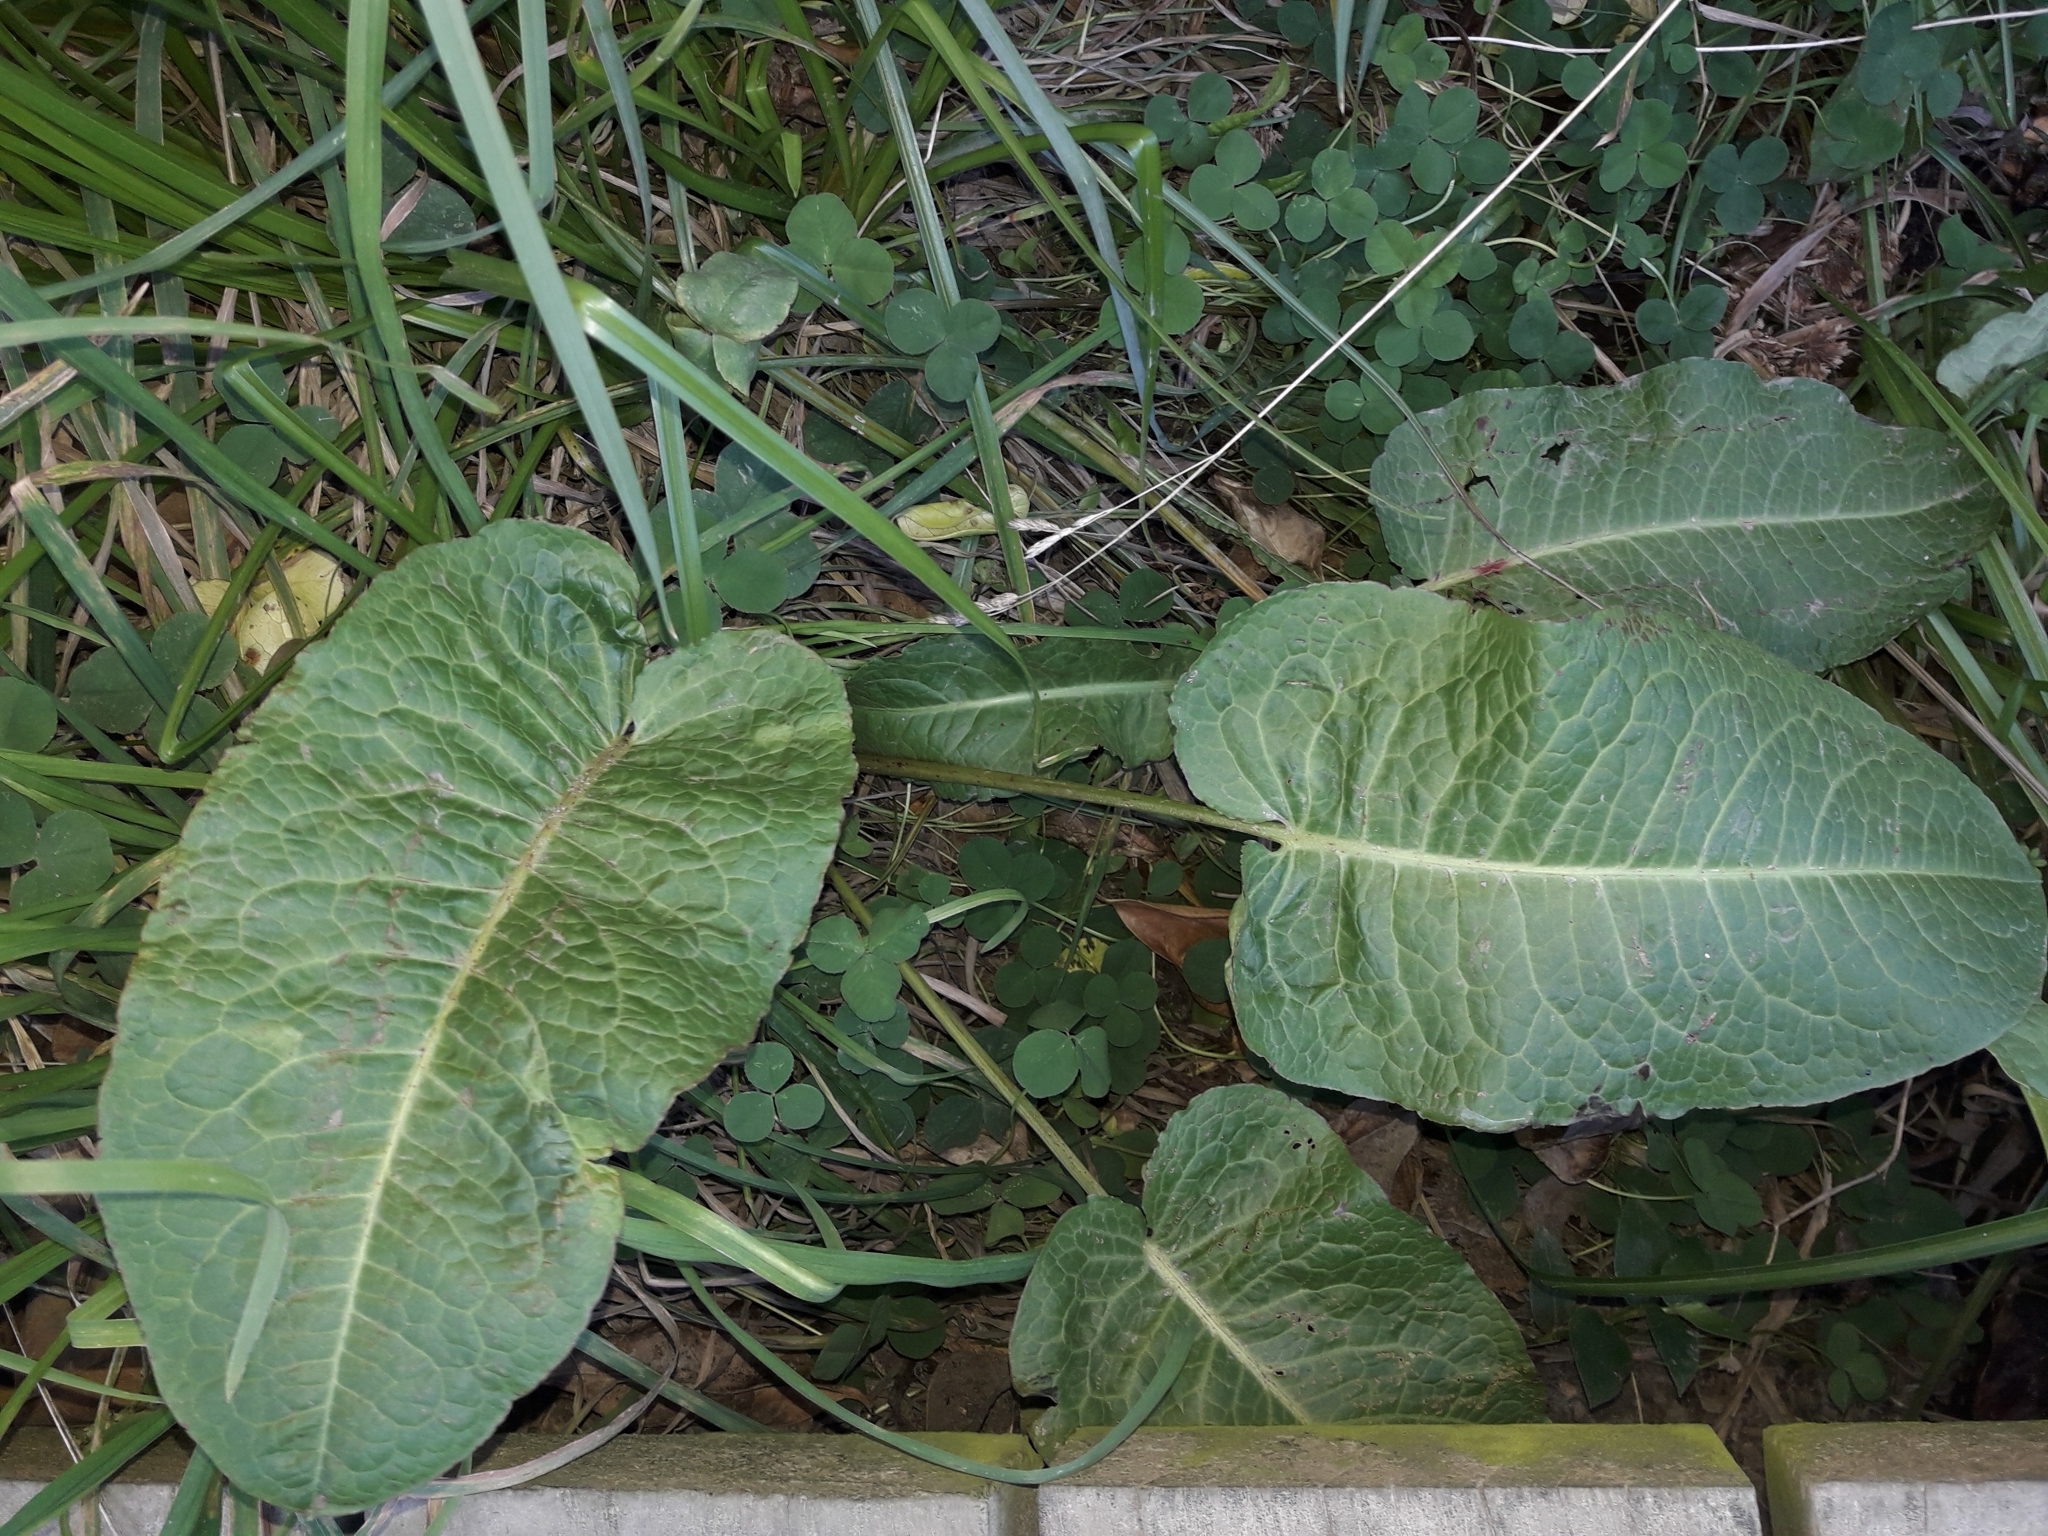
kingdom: Plantae
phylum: Tracheophyta
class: Magnoliopsida
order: Caryophyllales
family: Polygonaceae
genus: Rumex
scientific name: Rumex obtusifolius
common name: Bitter dock
